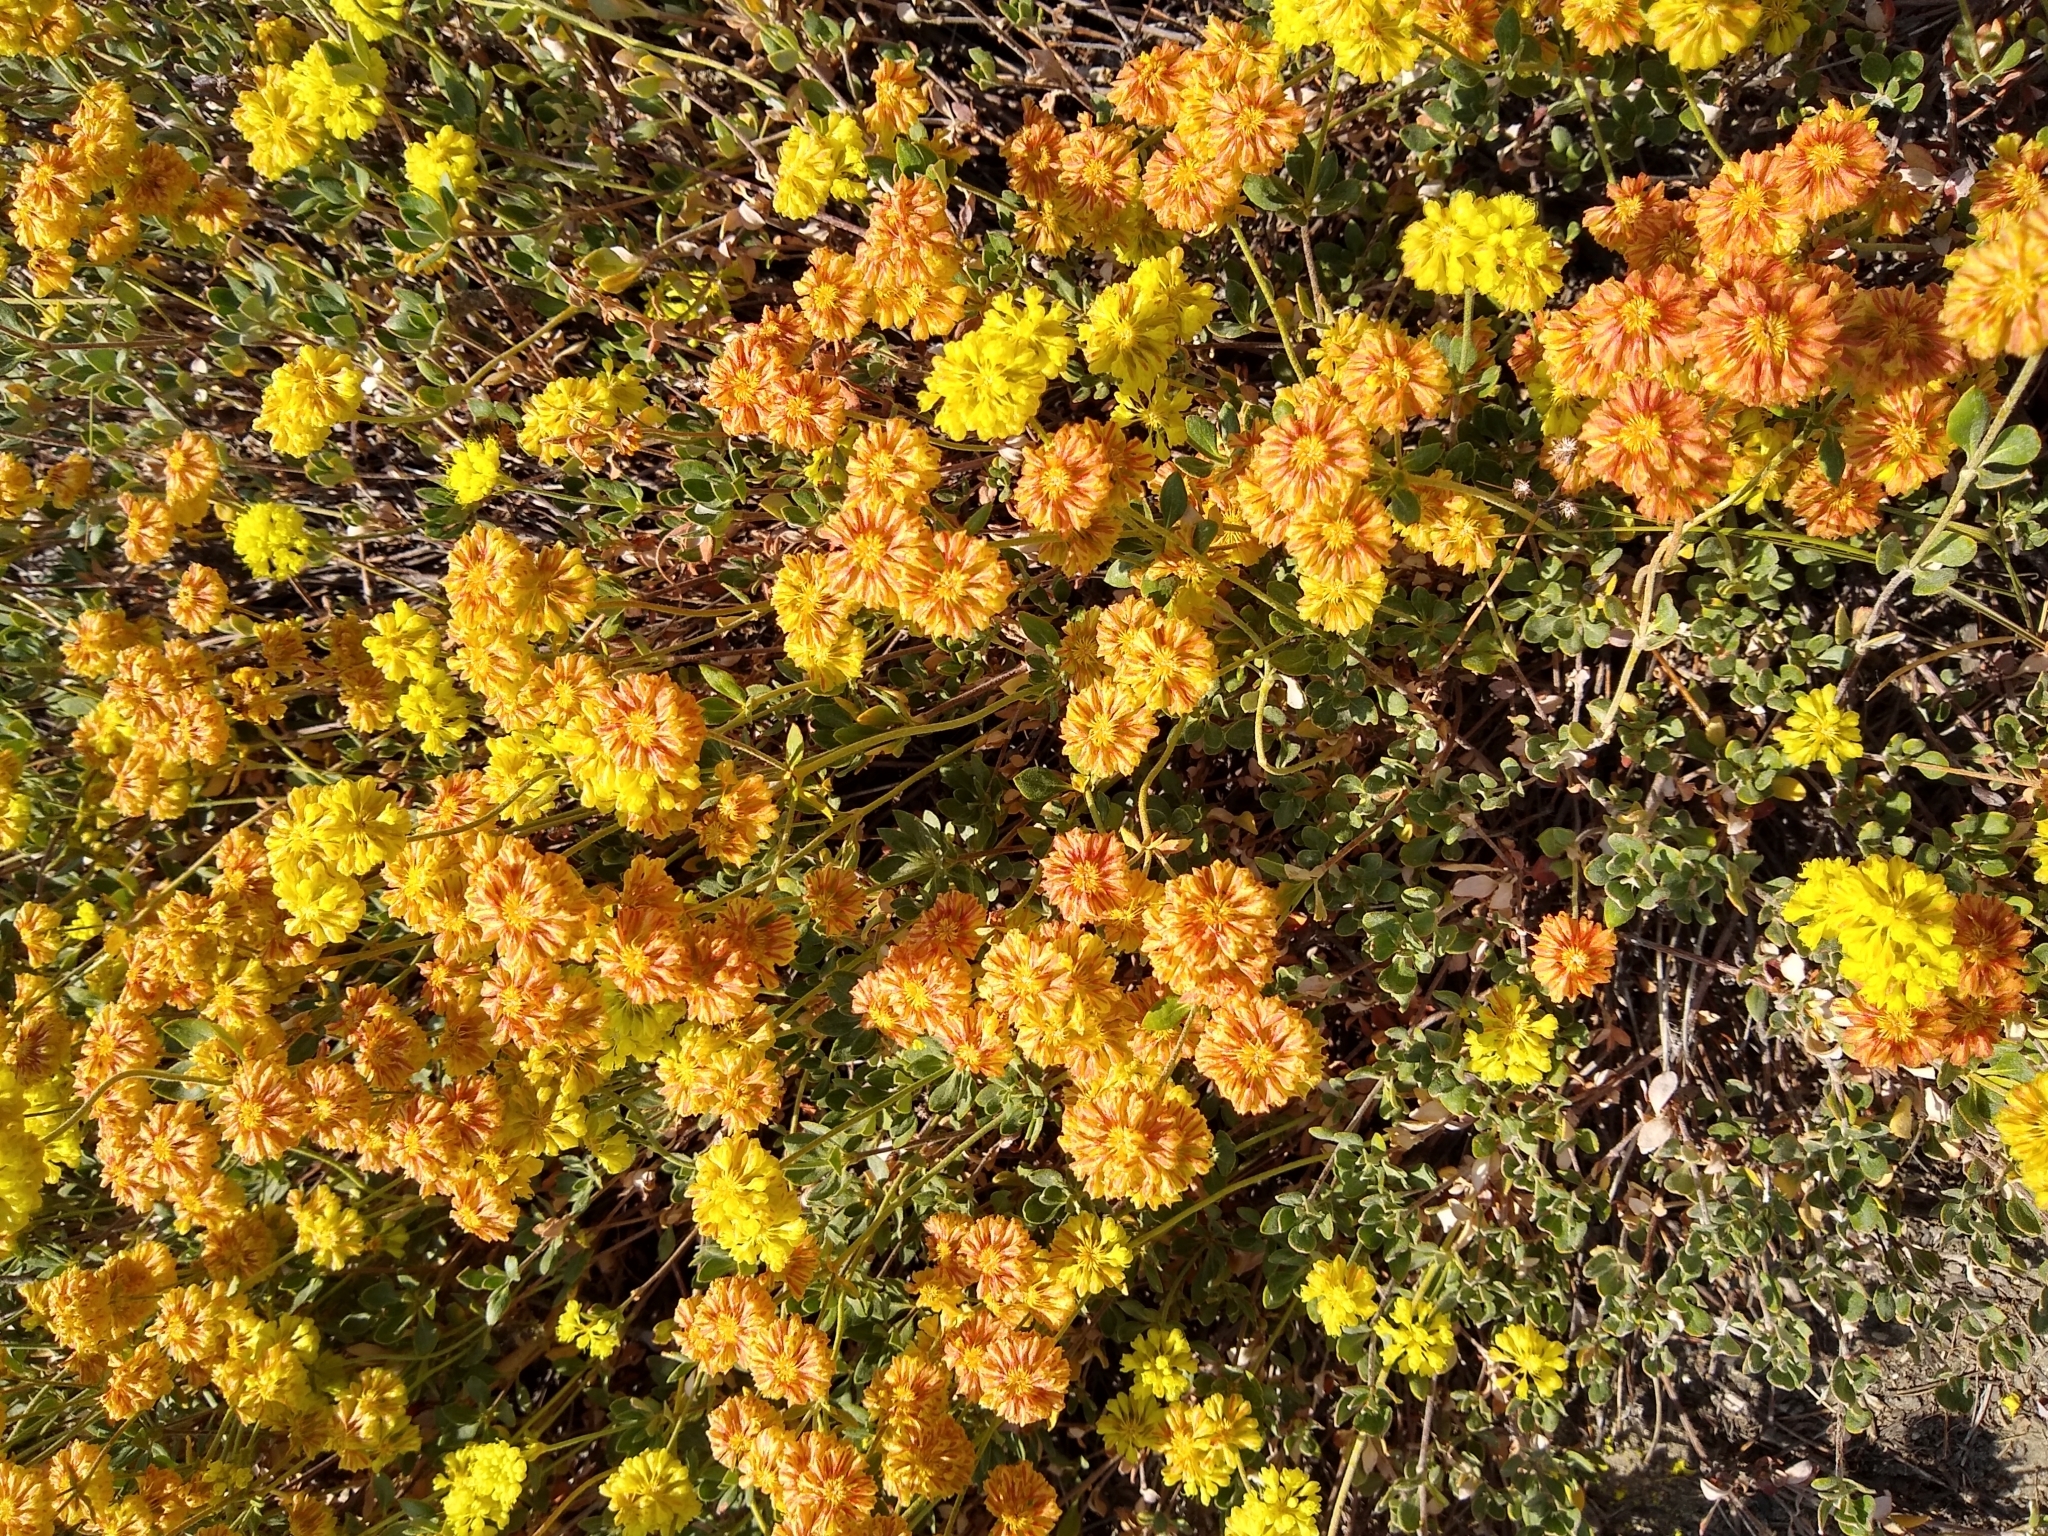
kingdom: Plantae
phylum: Tracheophyta
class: Magnoliopsida
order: Caryophyllales
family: Polygonaceae
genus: Eriogonum
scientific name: Eriogonum umbellatum
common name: Sulfur-buckwheat
